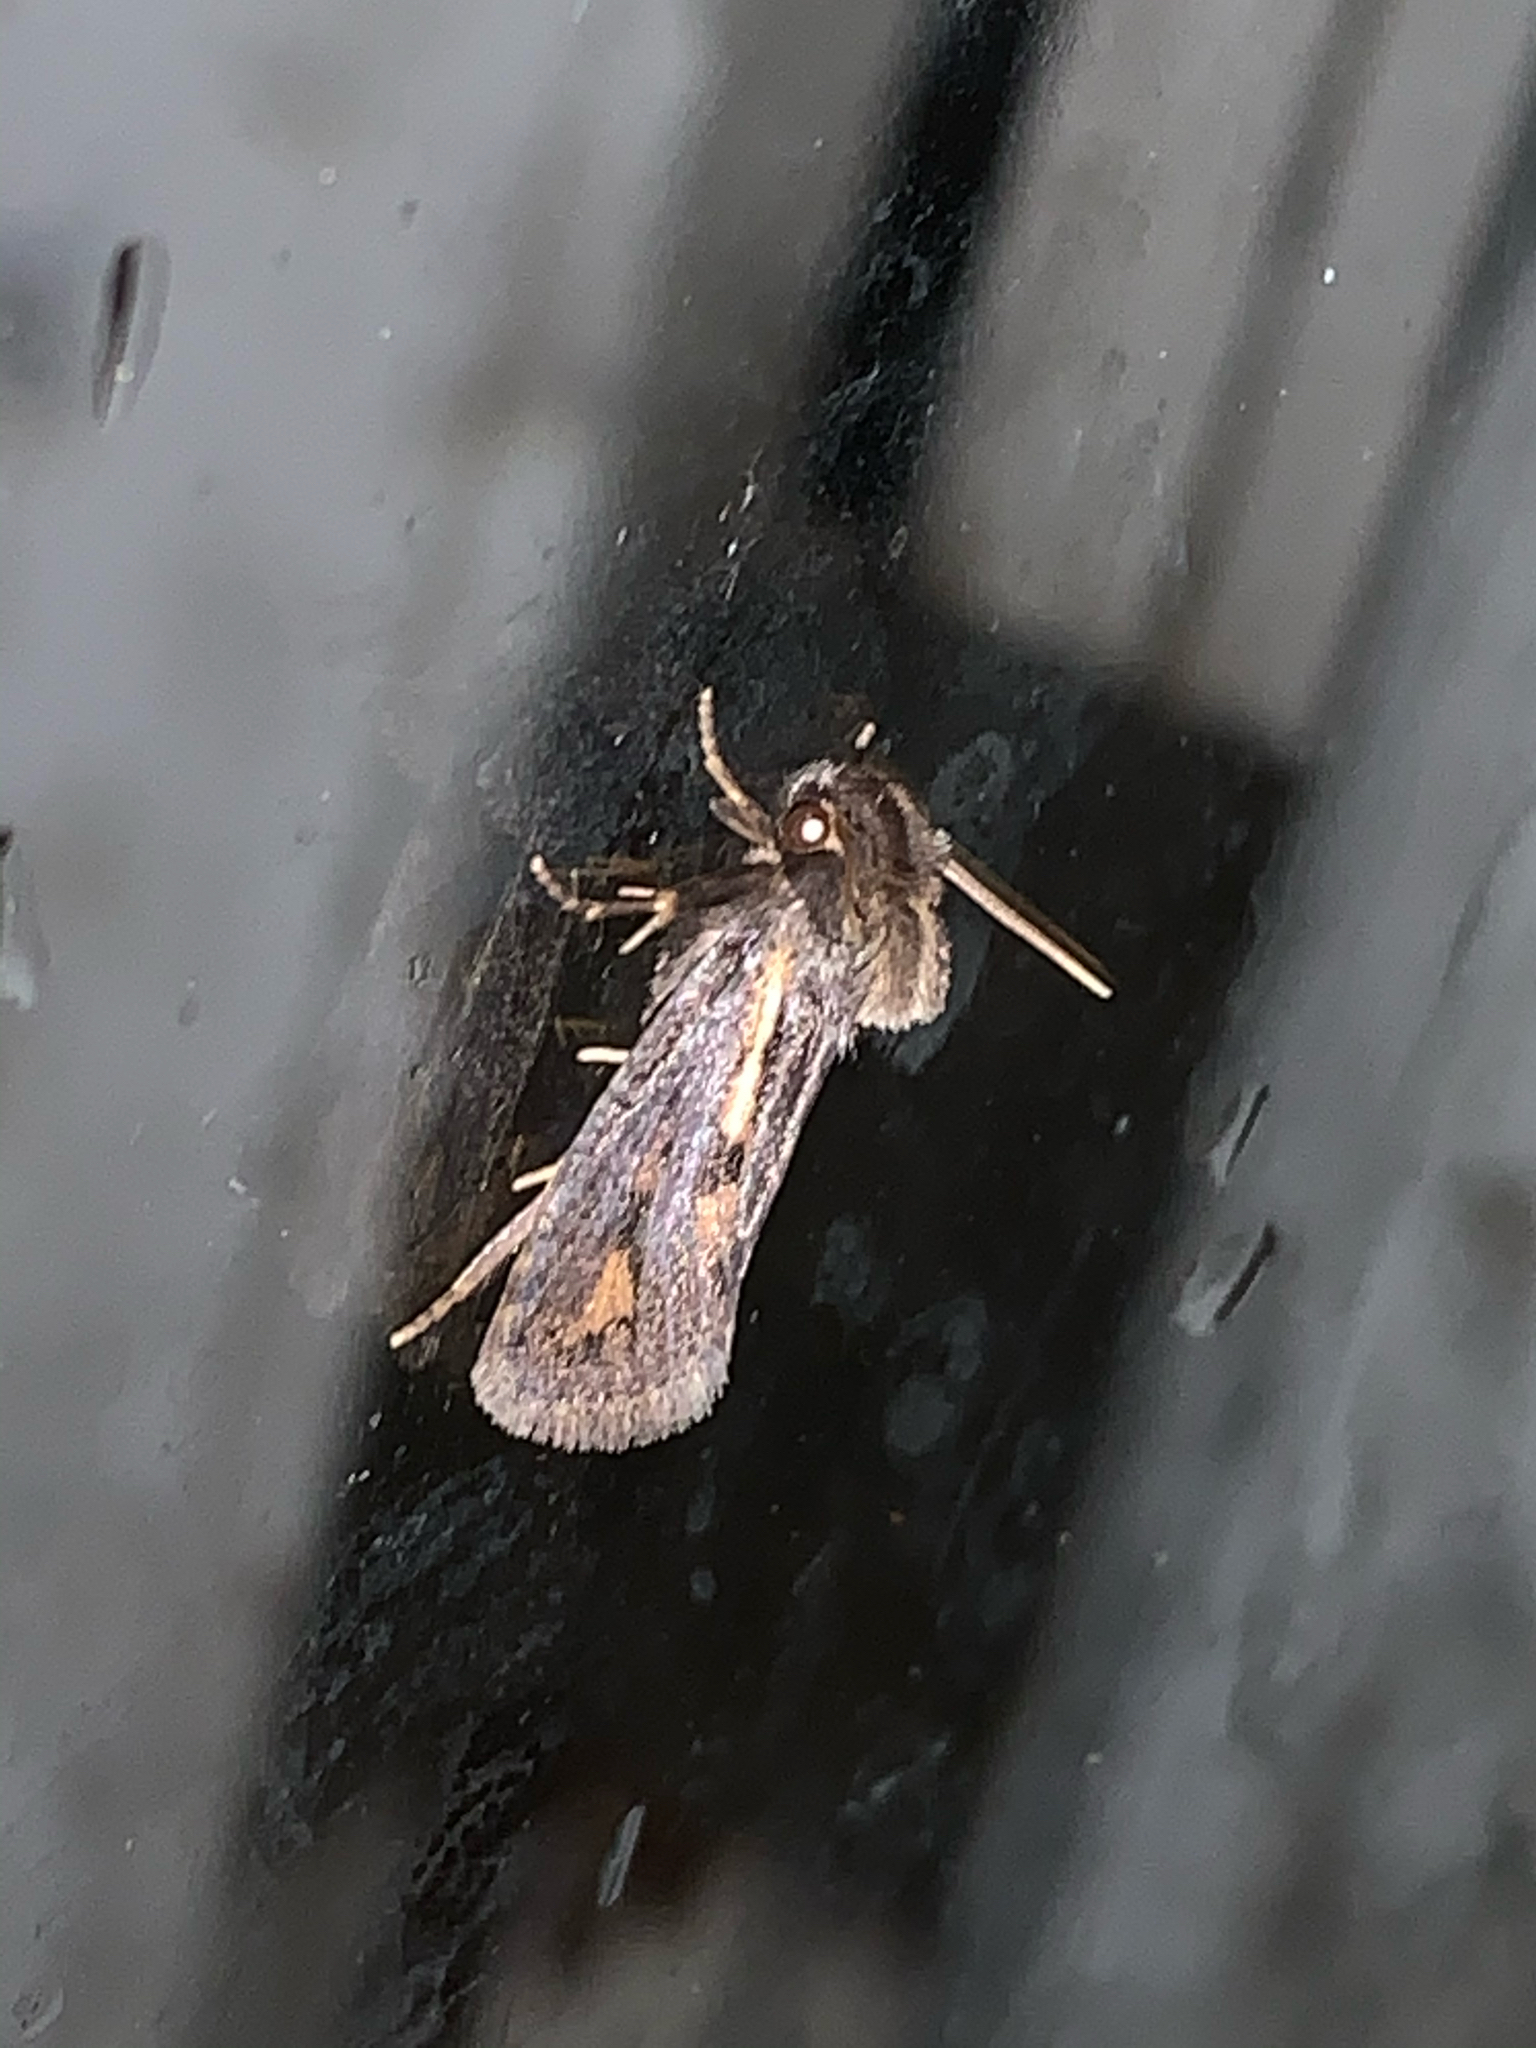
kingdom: Animalia
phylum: Arthropoda
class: Insecta
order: Lepidoptera
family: Tineidae
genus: Acrolophus
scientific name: Acrolophus popeanella
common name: Clemens' grass tubeworm moth
